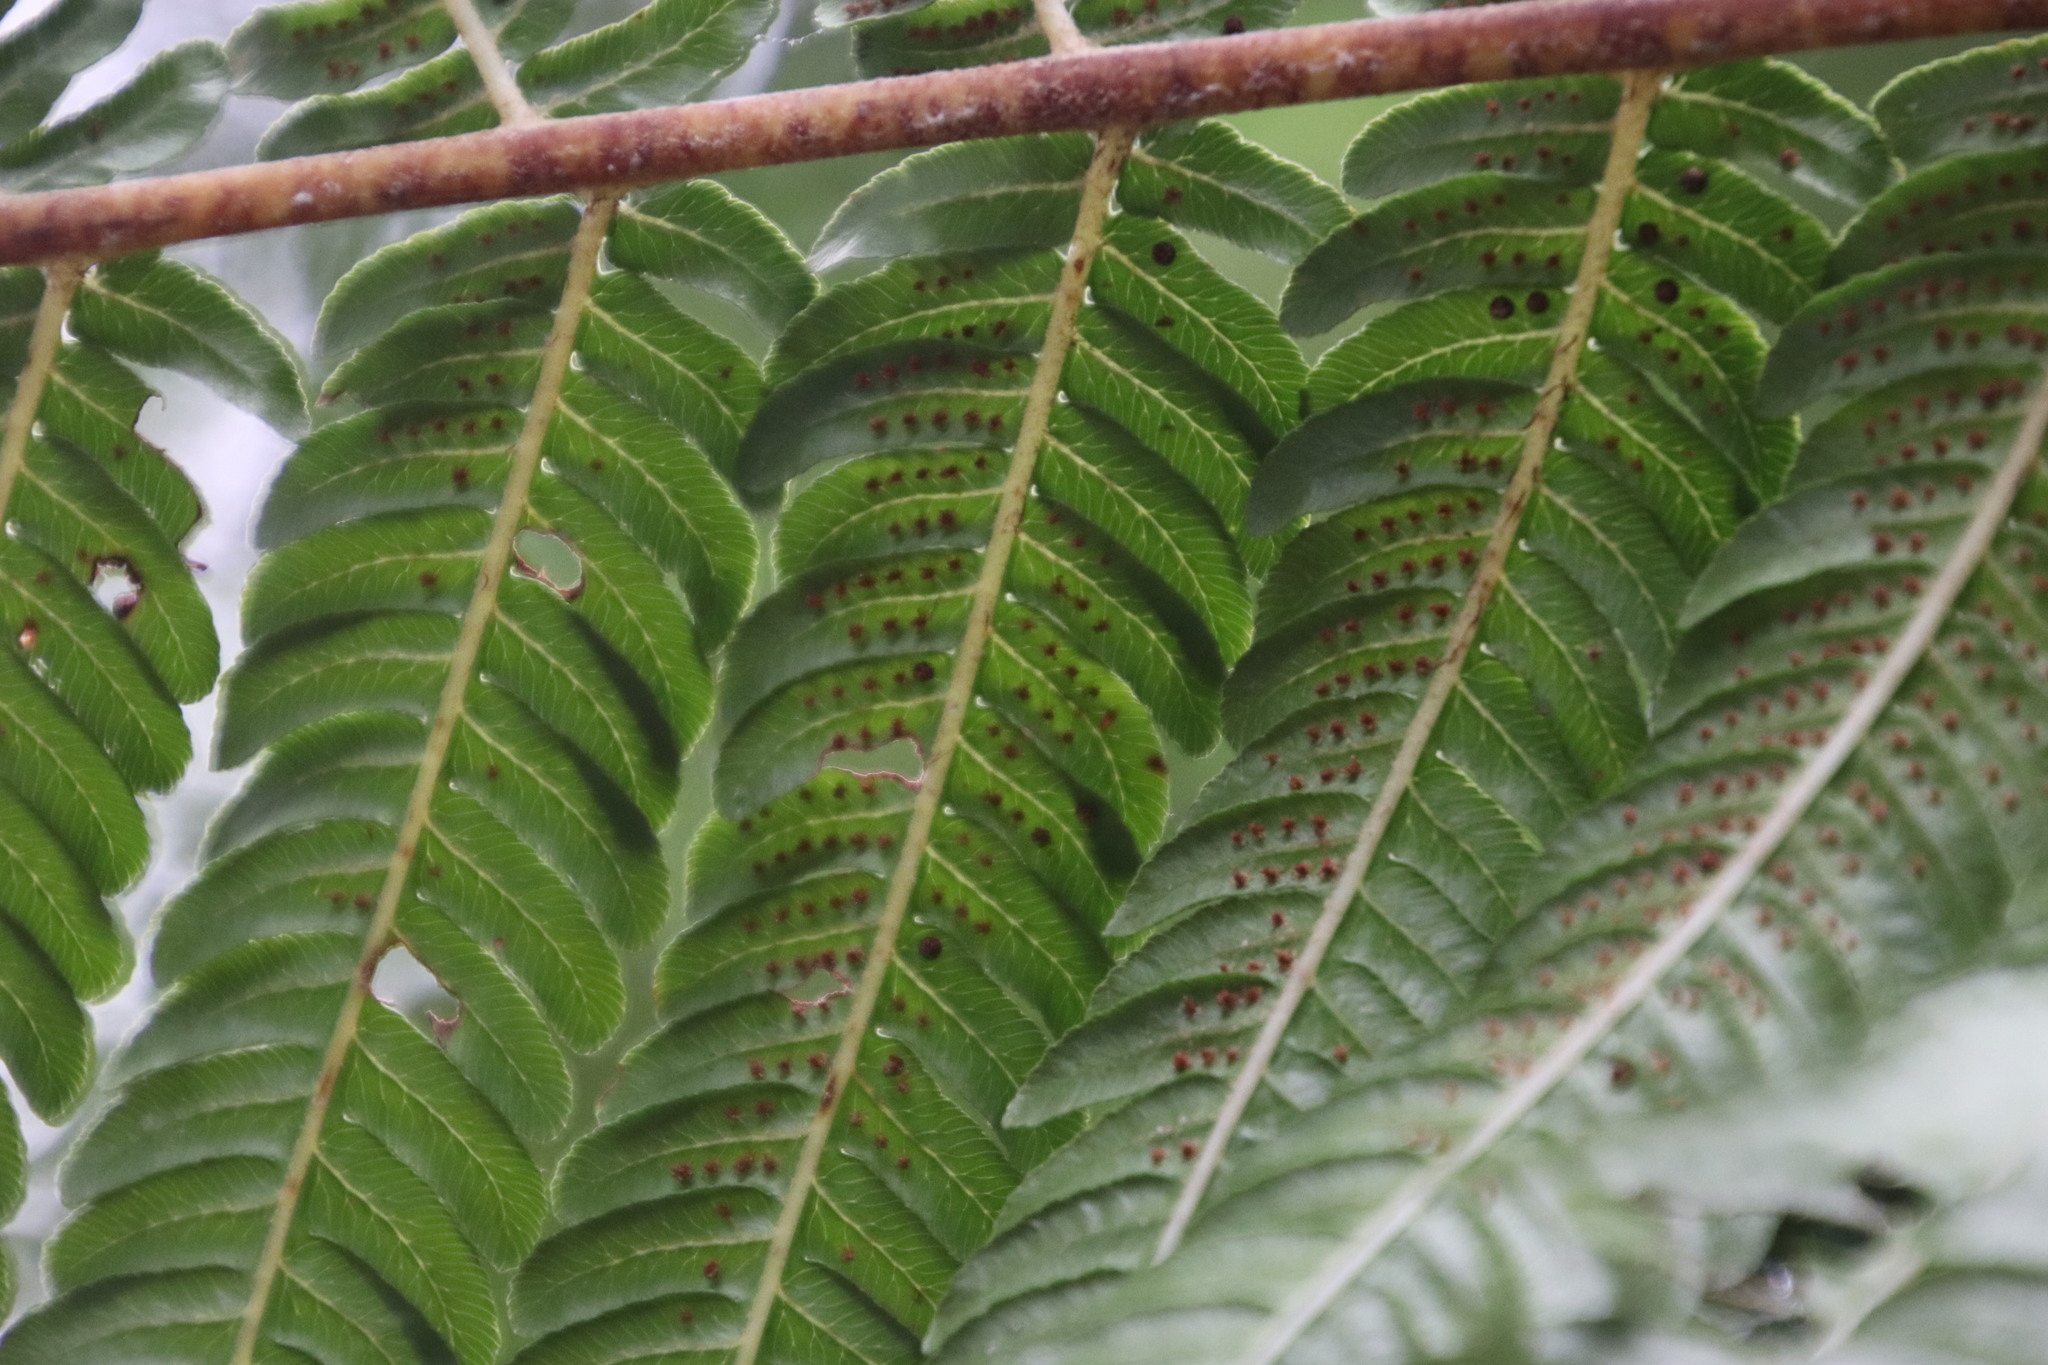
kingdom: Plantae
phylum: Tracheophyta
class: Polypodiopsida
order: Cyatheales
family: Cyatheaceae
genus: Sphaeropteris
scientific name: Sphaeropteris cooperi
